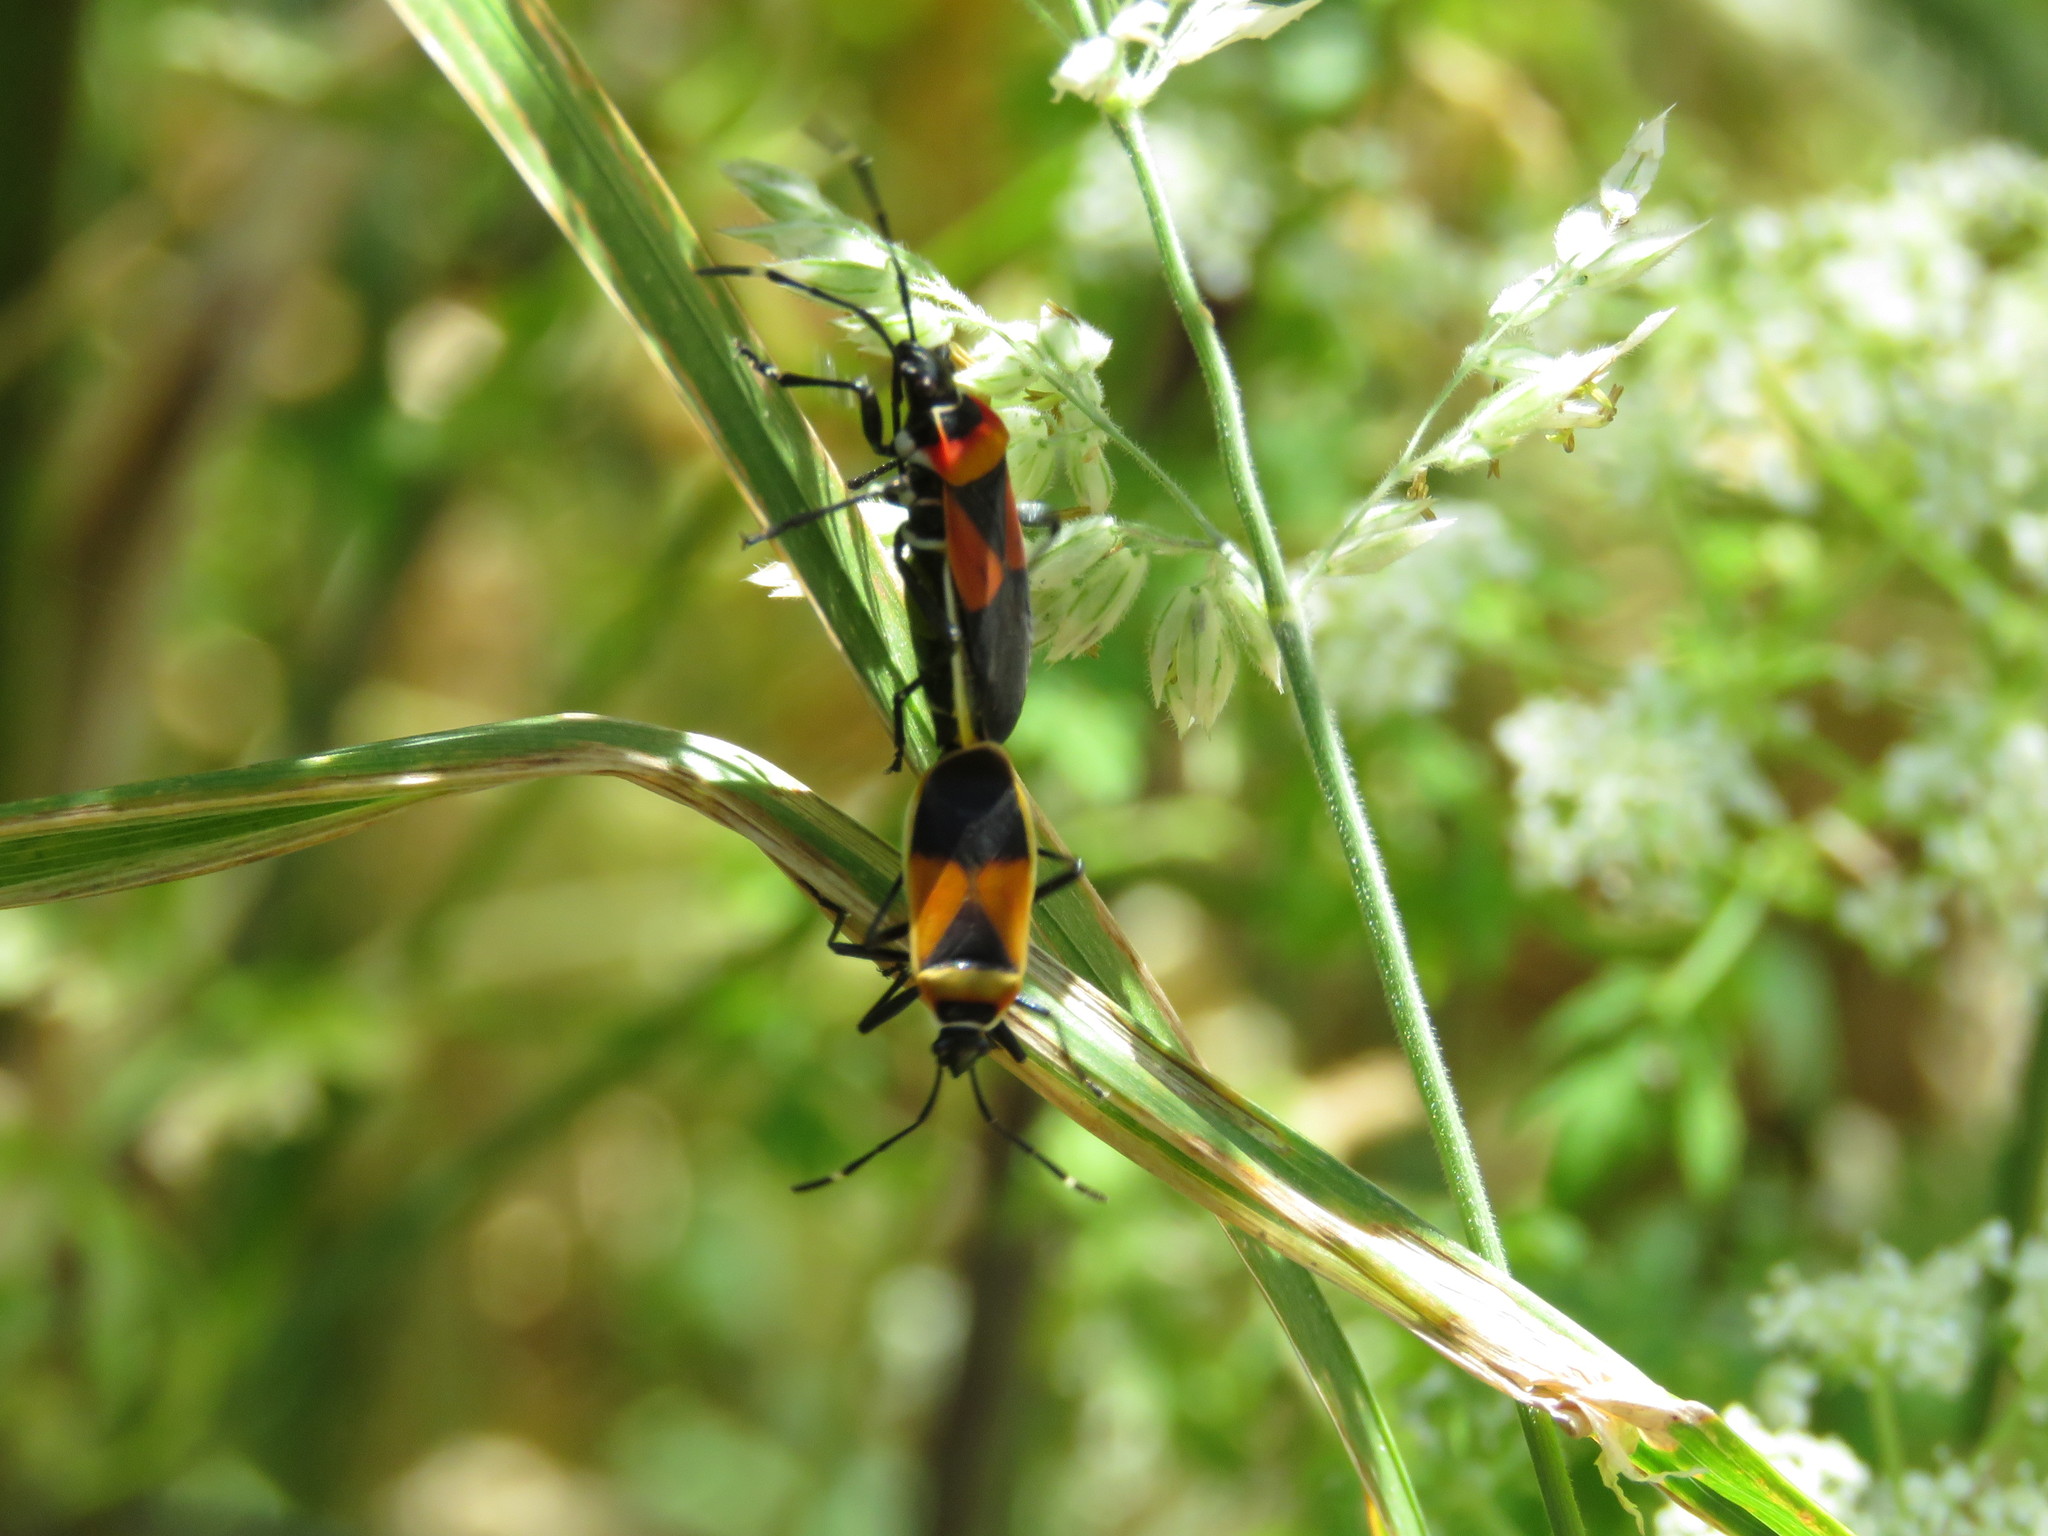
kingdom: Animalia
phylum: Arthropoda
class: Insecta
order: Hemiptera
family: Pyrrhocoridae
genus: Dindymus
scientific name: Dindymus
